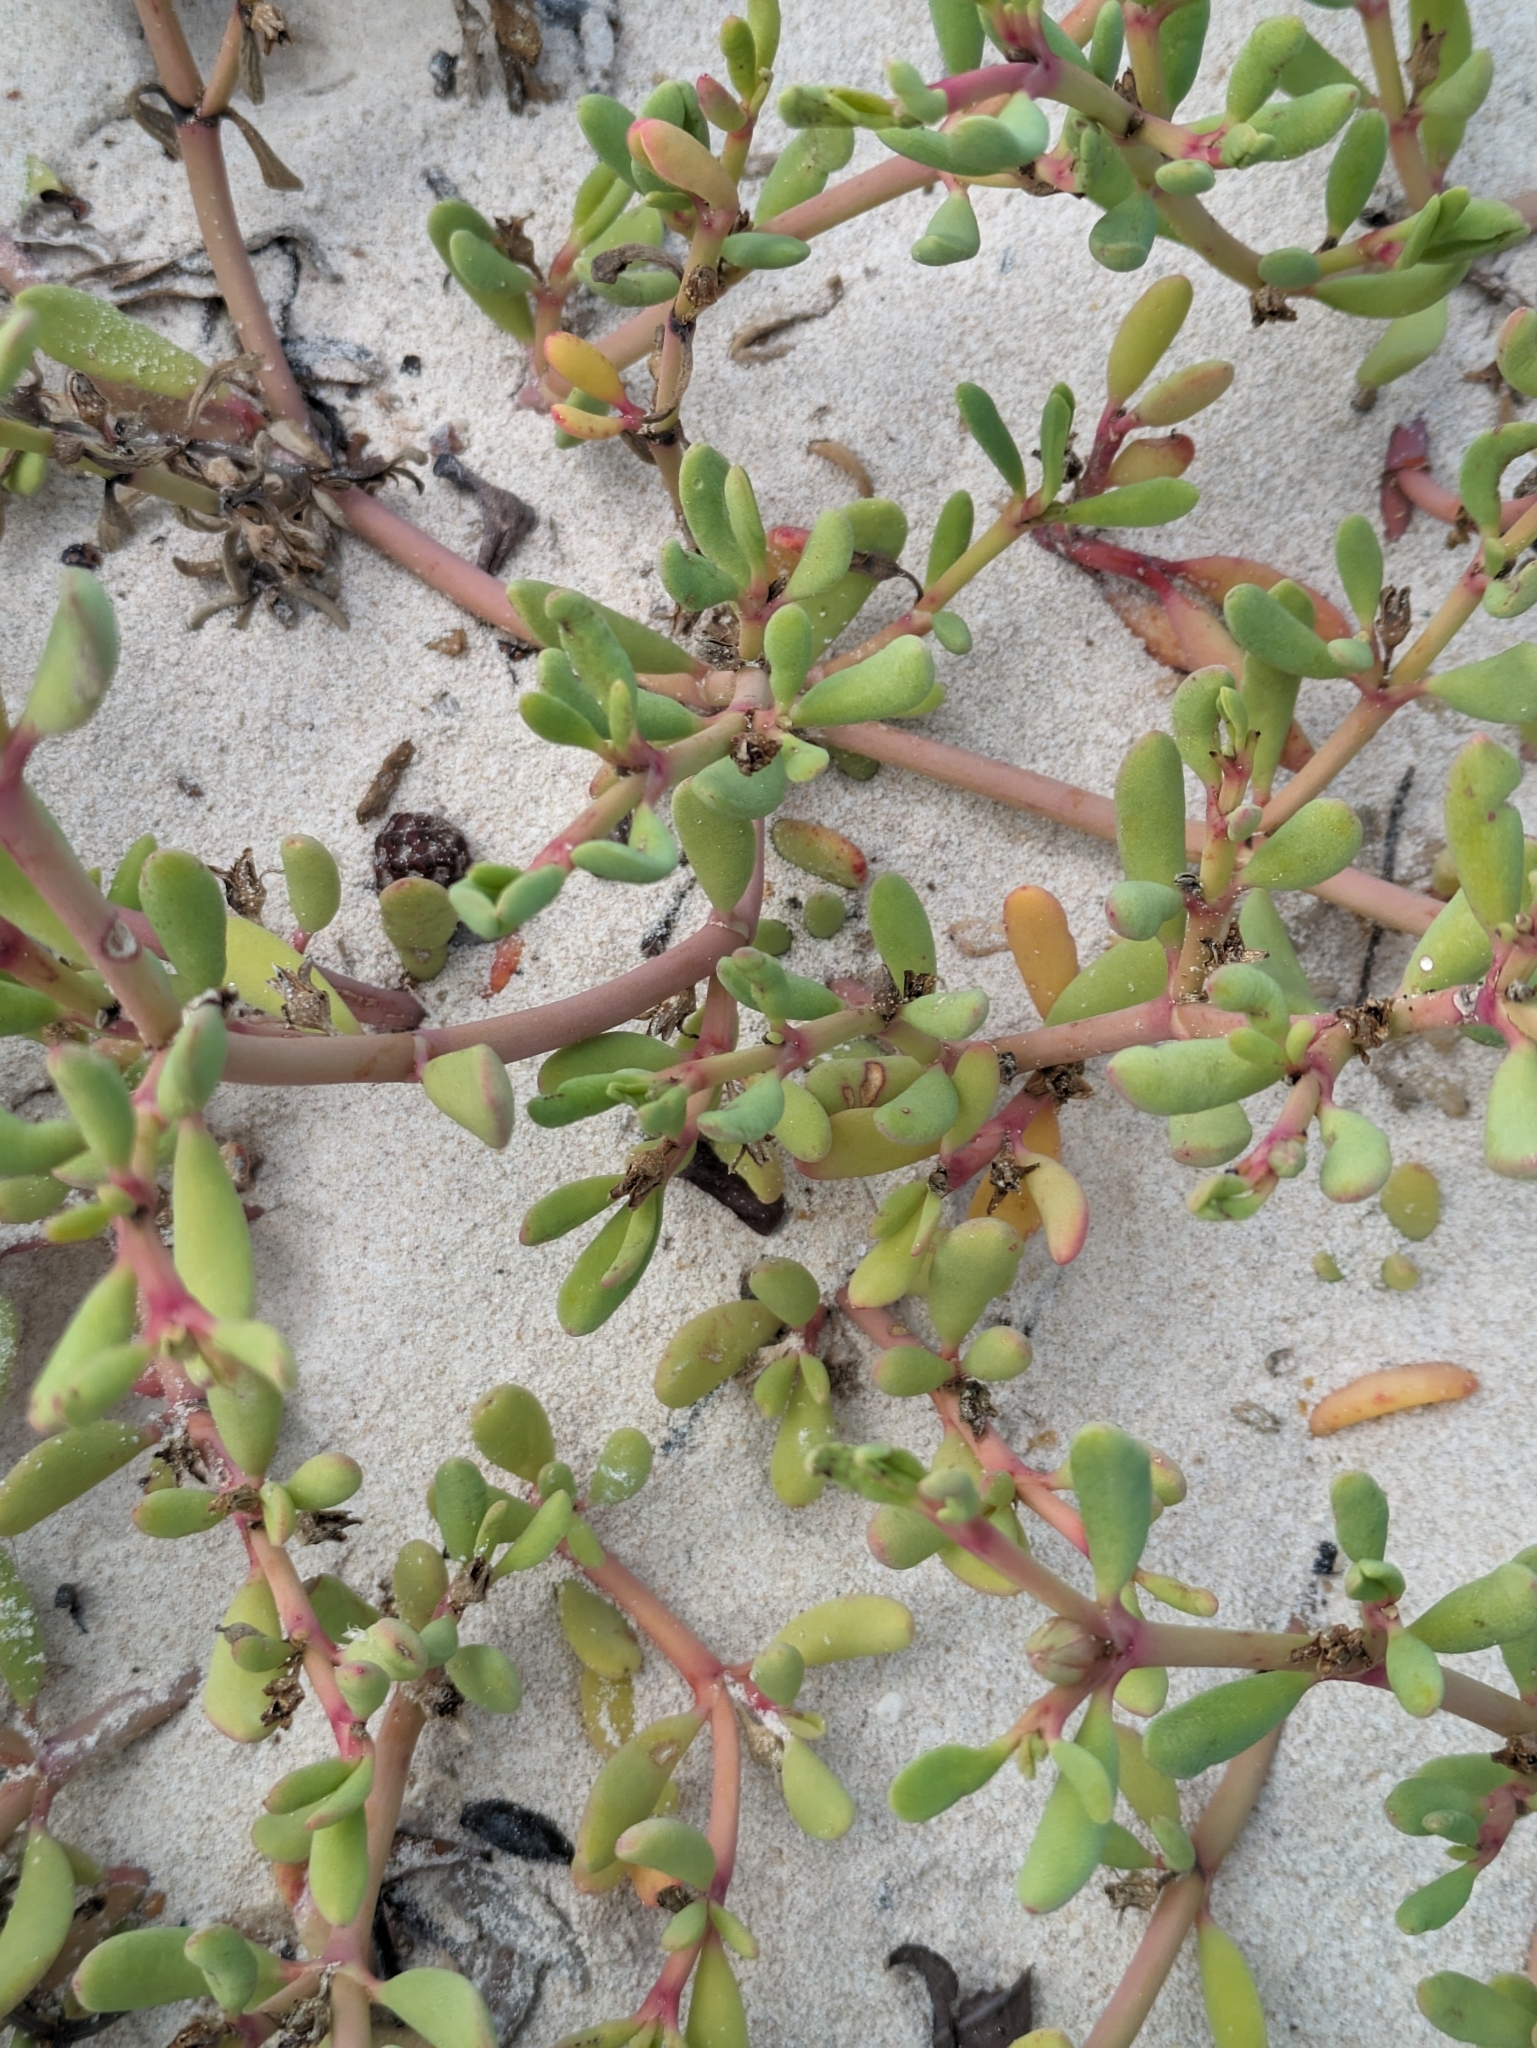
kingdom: Plantae
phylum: Tracheophyta
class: Magnoliopsida
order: Caryophyllales
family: Aizoaceae
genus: Sesuvium
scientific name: Sesuvium portulacastrum
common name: Sea-purslane
